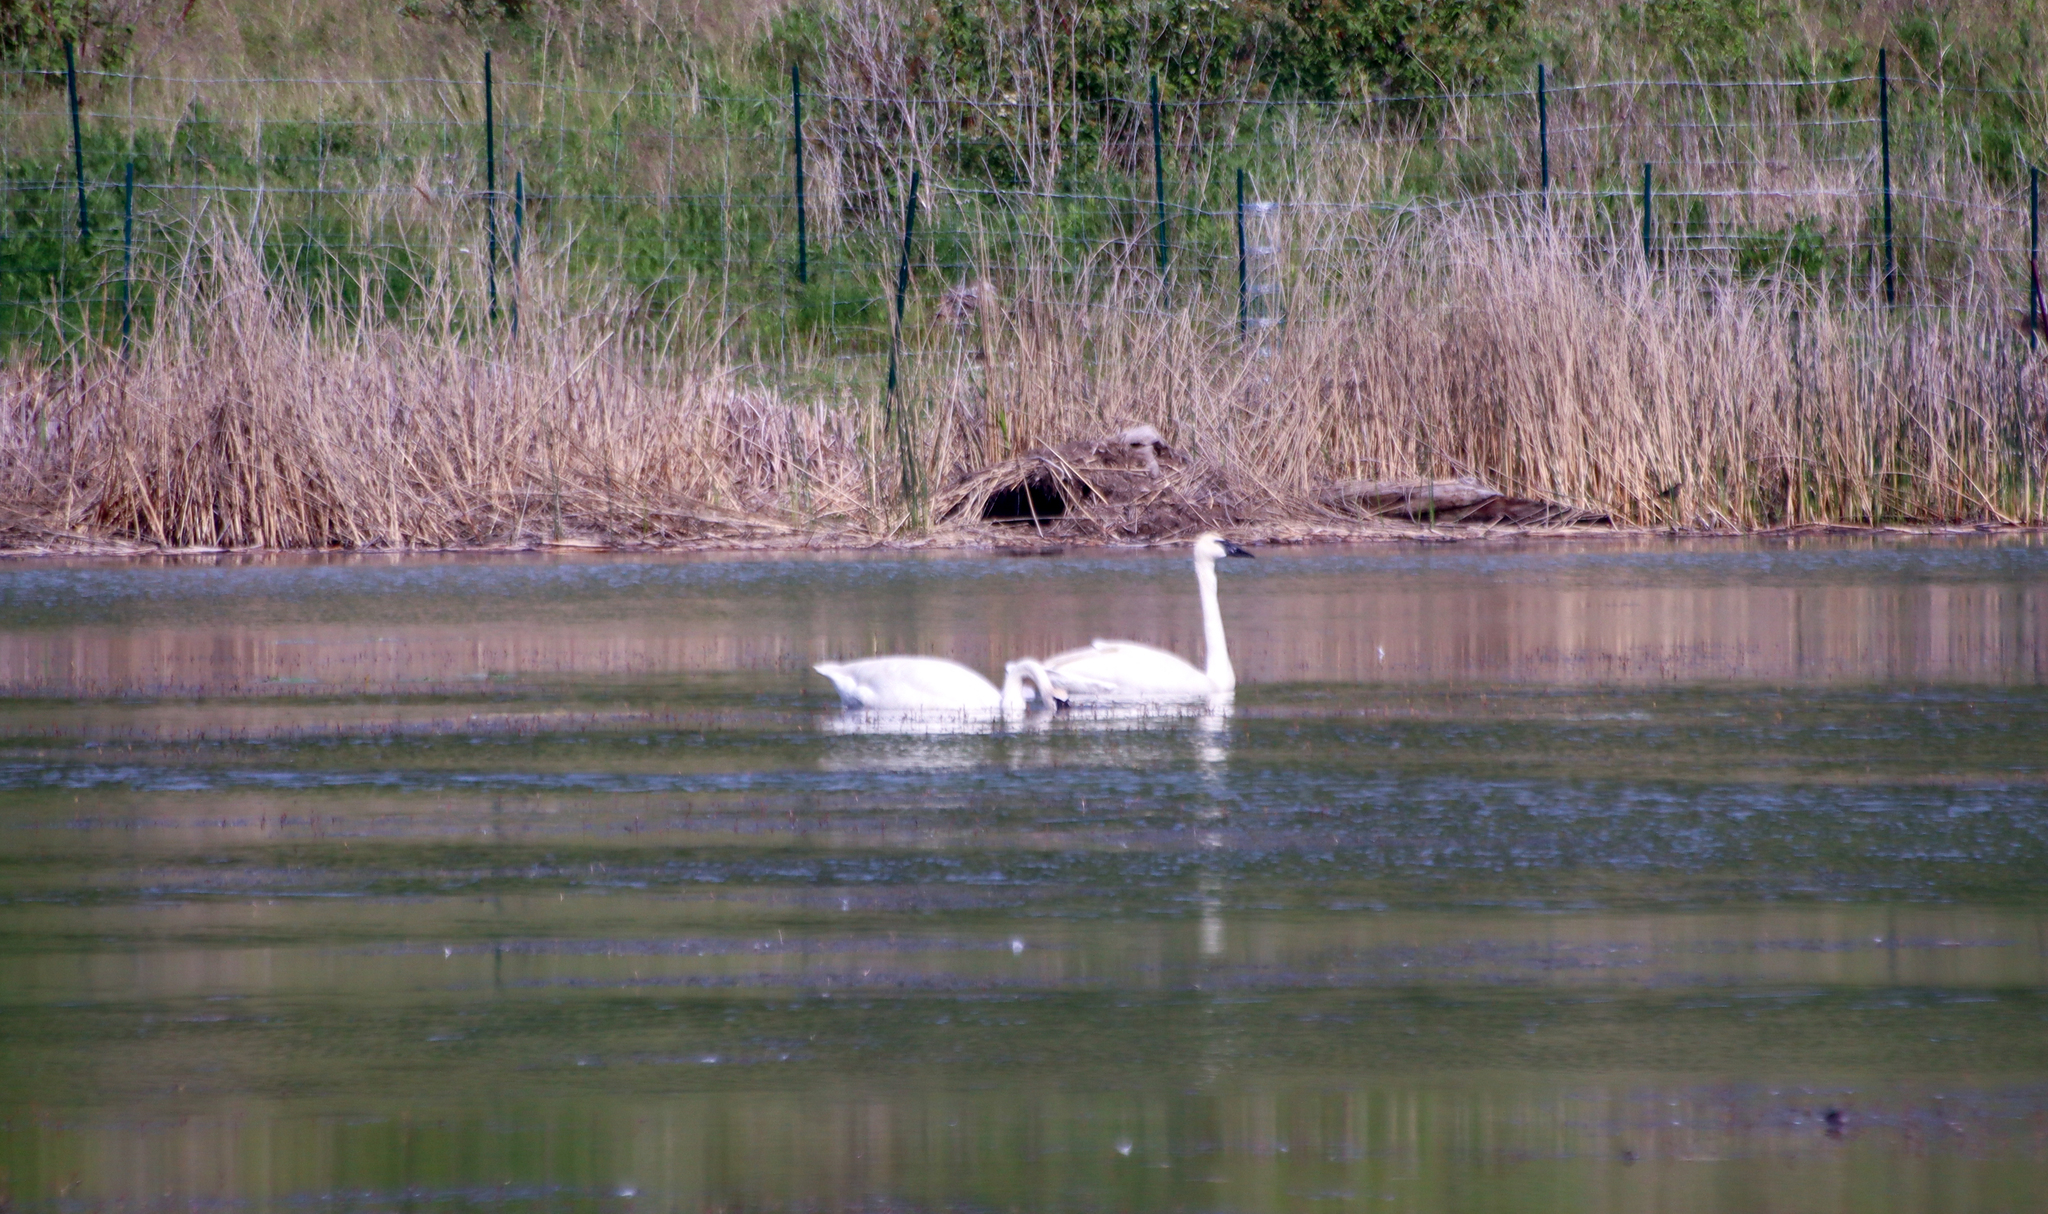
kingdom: Animalia
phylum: Chordata
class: Aves
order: Anseriformes
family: Anatidae
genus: Cygnus
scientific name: Cygnus buccinator
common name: Trumpeter swan
